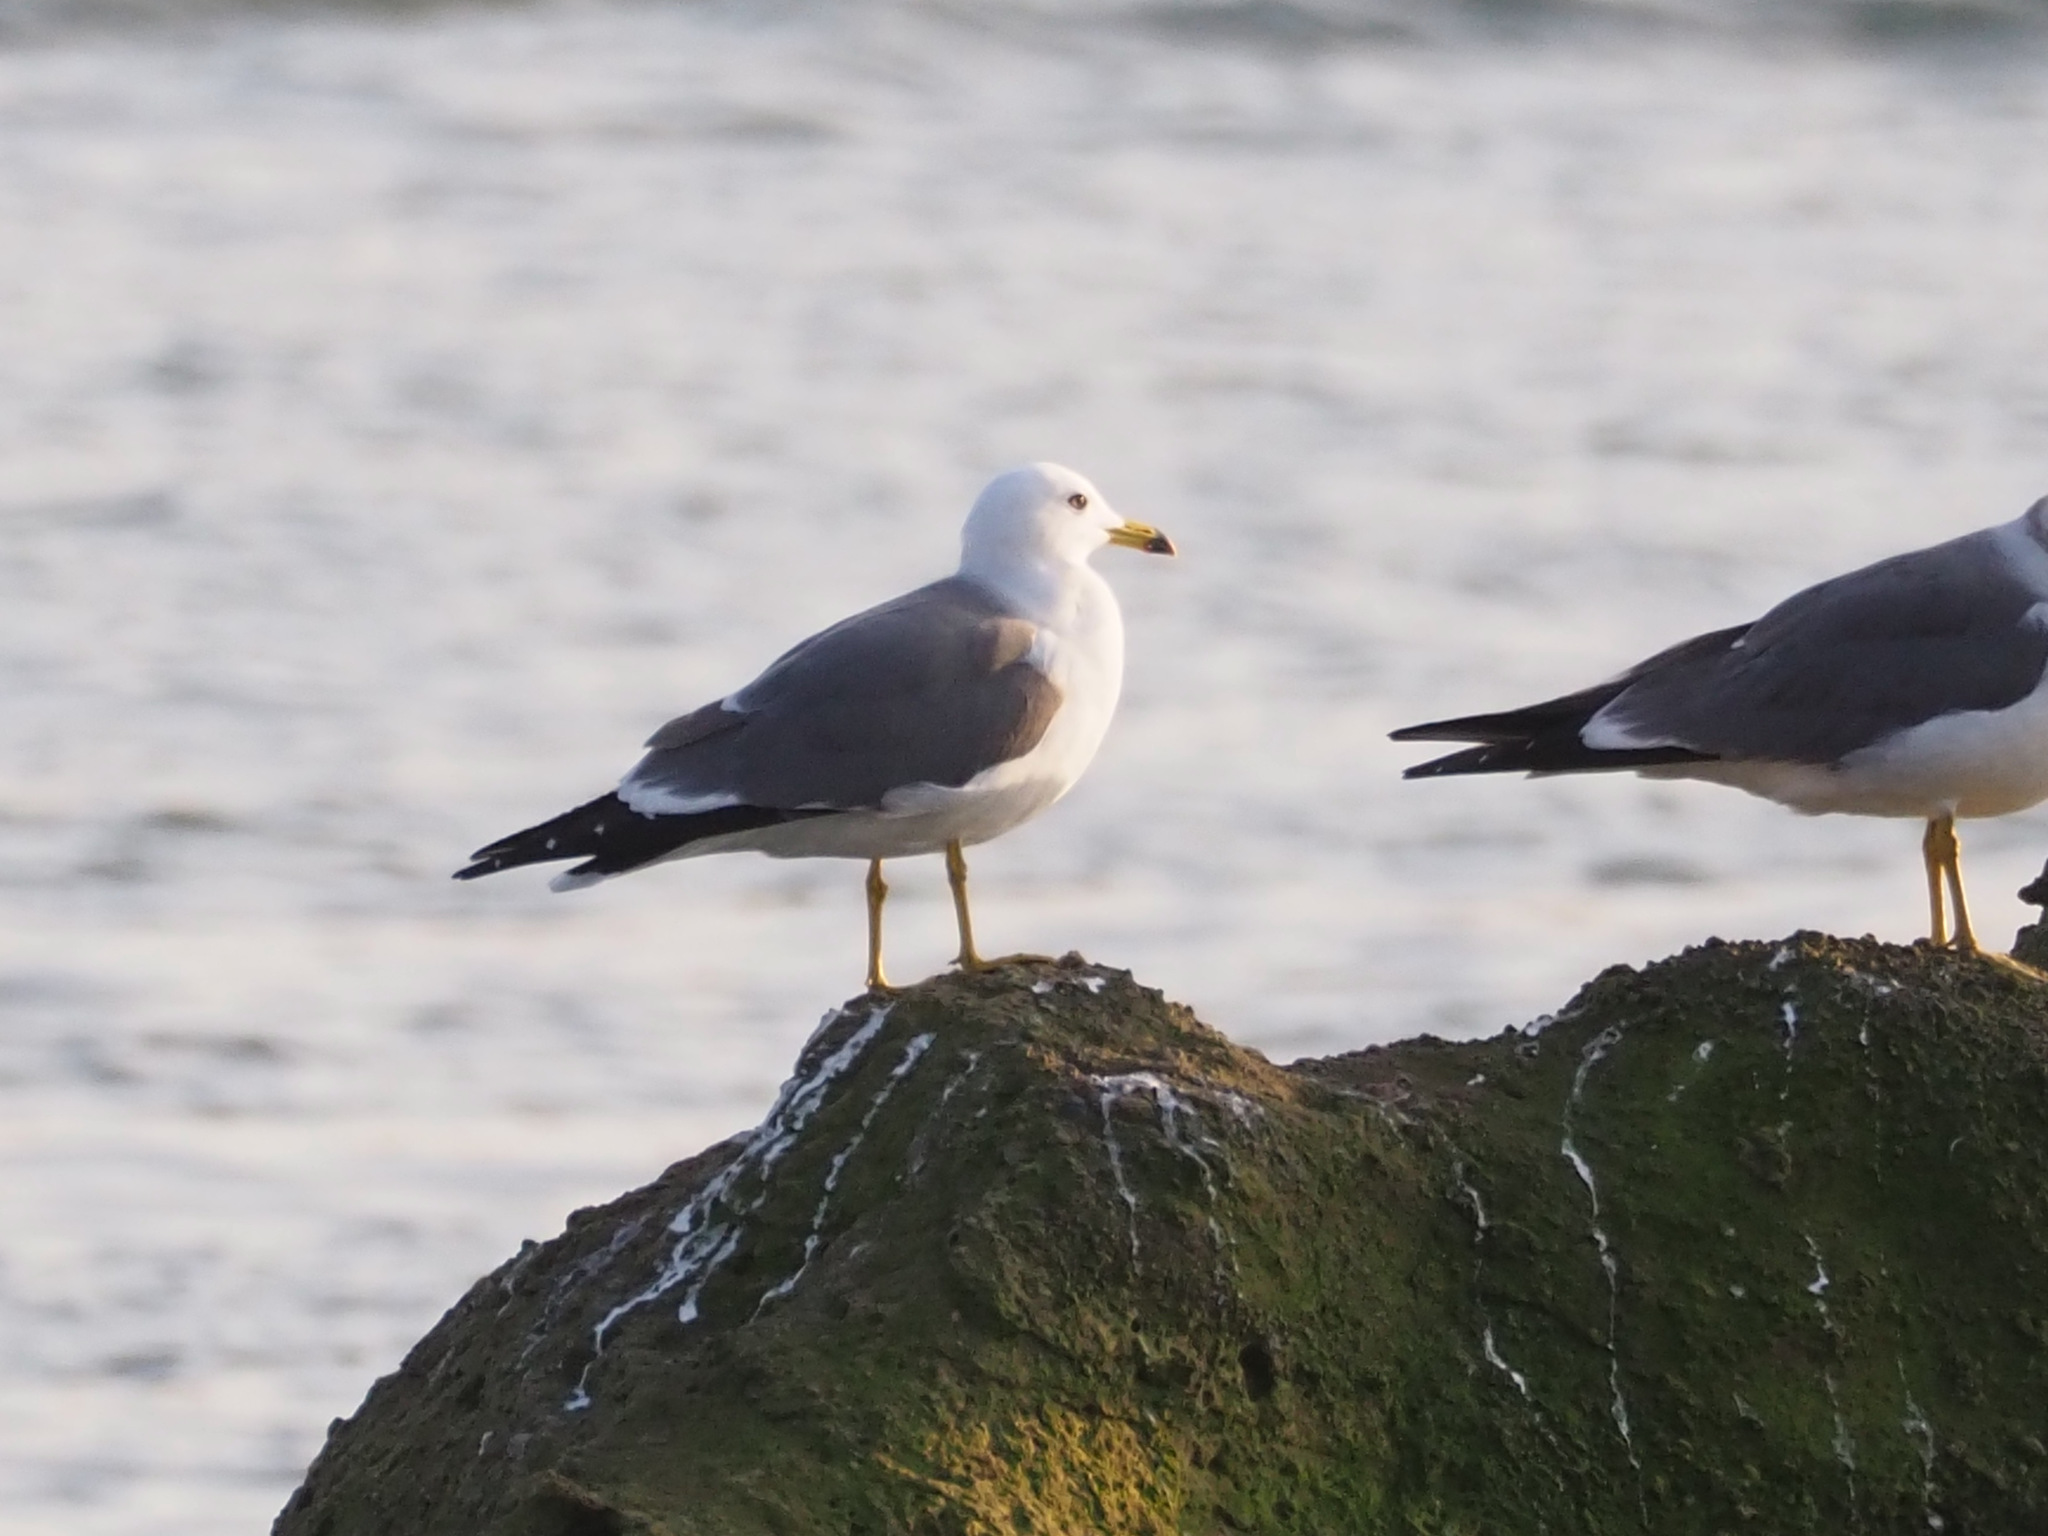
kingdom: Animalia
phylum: Chordata
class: Aves
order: Charadriiformes
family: Laridae
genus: Larus
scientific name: Larus crassirostris
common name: Black-tailed gull
